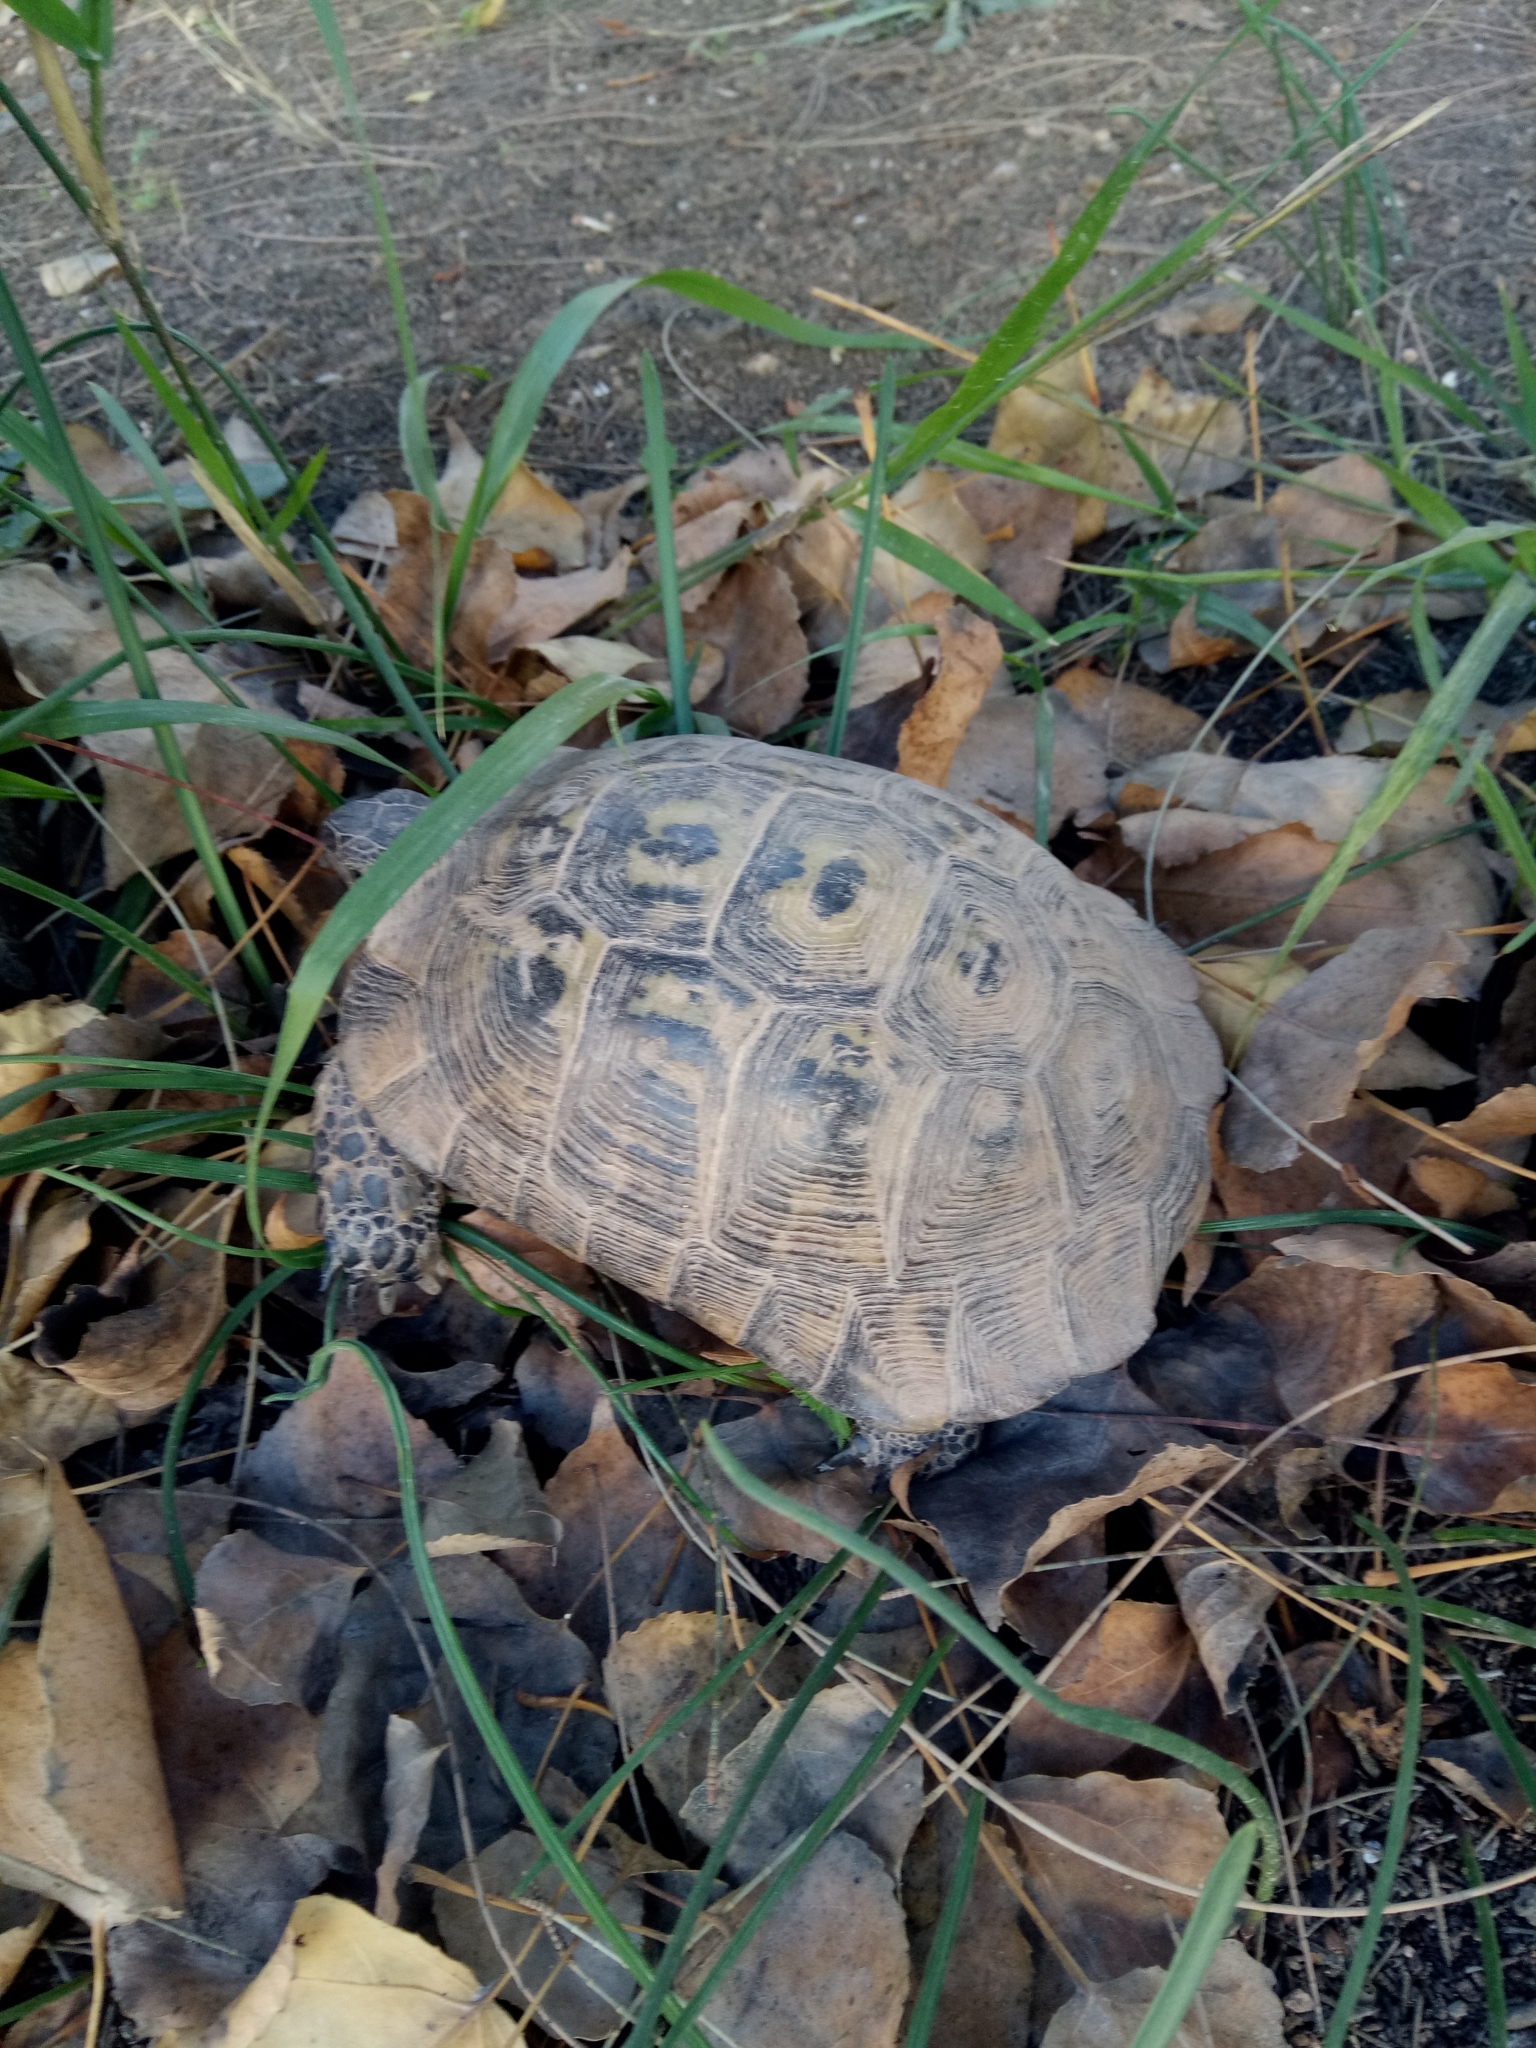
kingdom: Animalia
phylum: Chordata
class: Testudines
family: Testudinidae
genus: Testudo
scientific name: Testudo graeca
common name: Common tortoise
